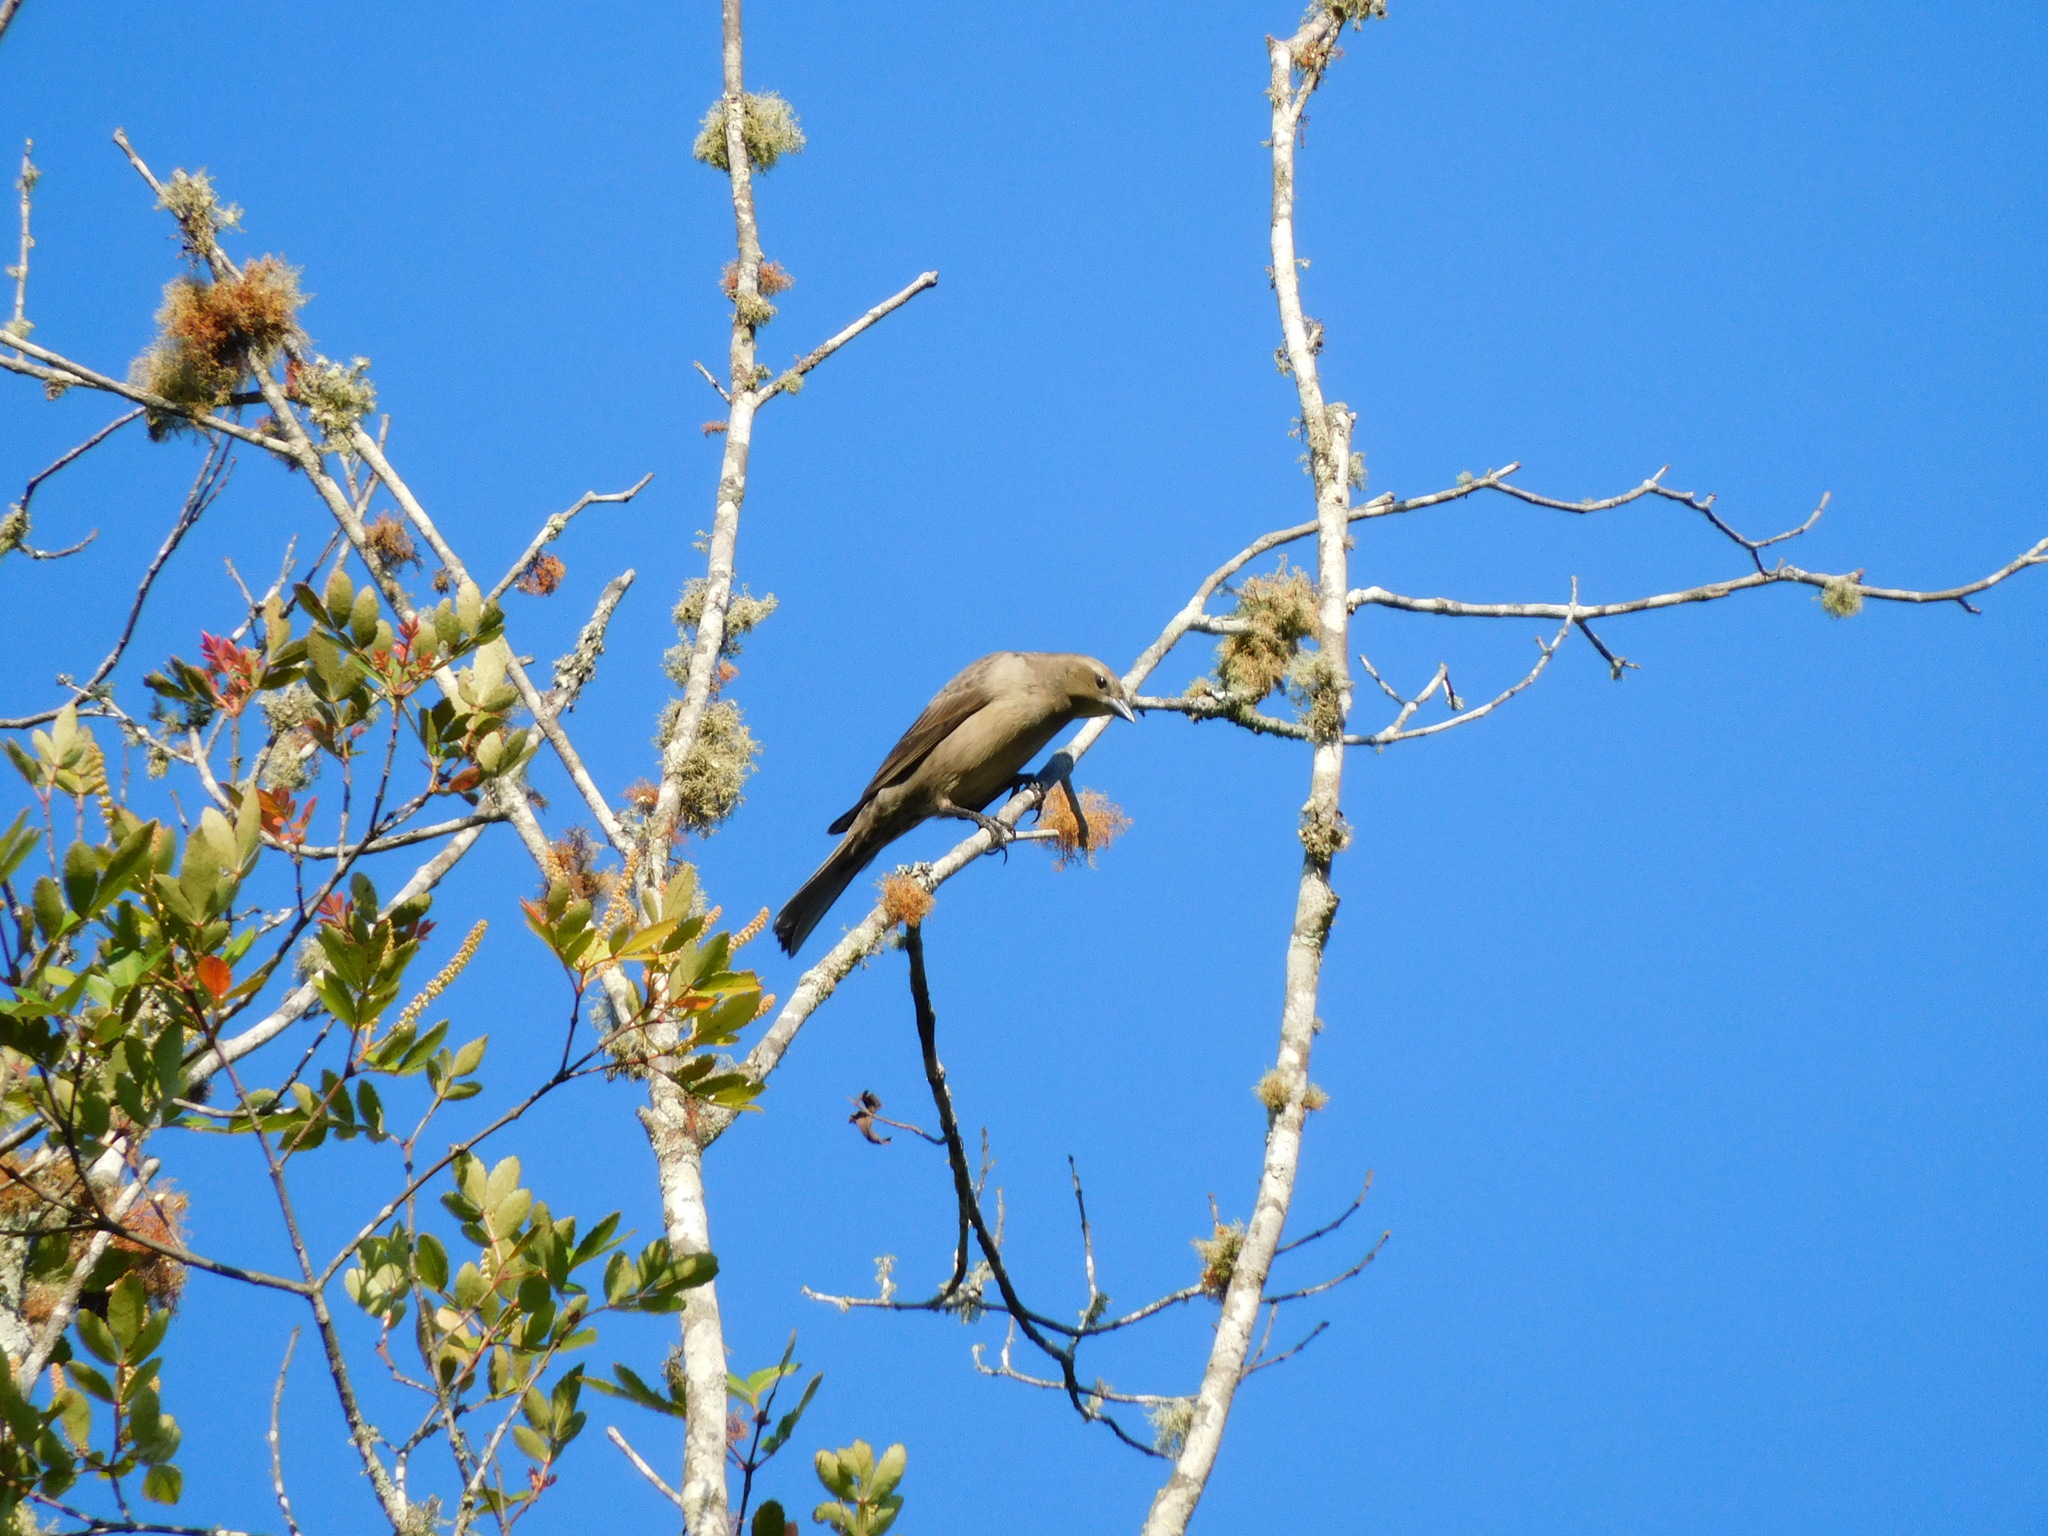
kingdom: Animalia
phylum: Chordata
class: Aves
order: Passeriformes
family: Icteridae
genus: Molothrus
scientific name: Molothrus bonariensis
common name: Shiny cowbird
